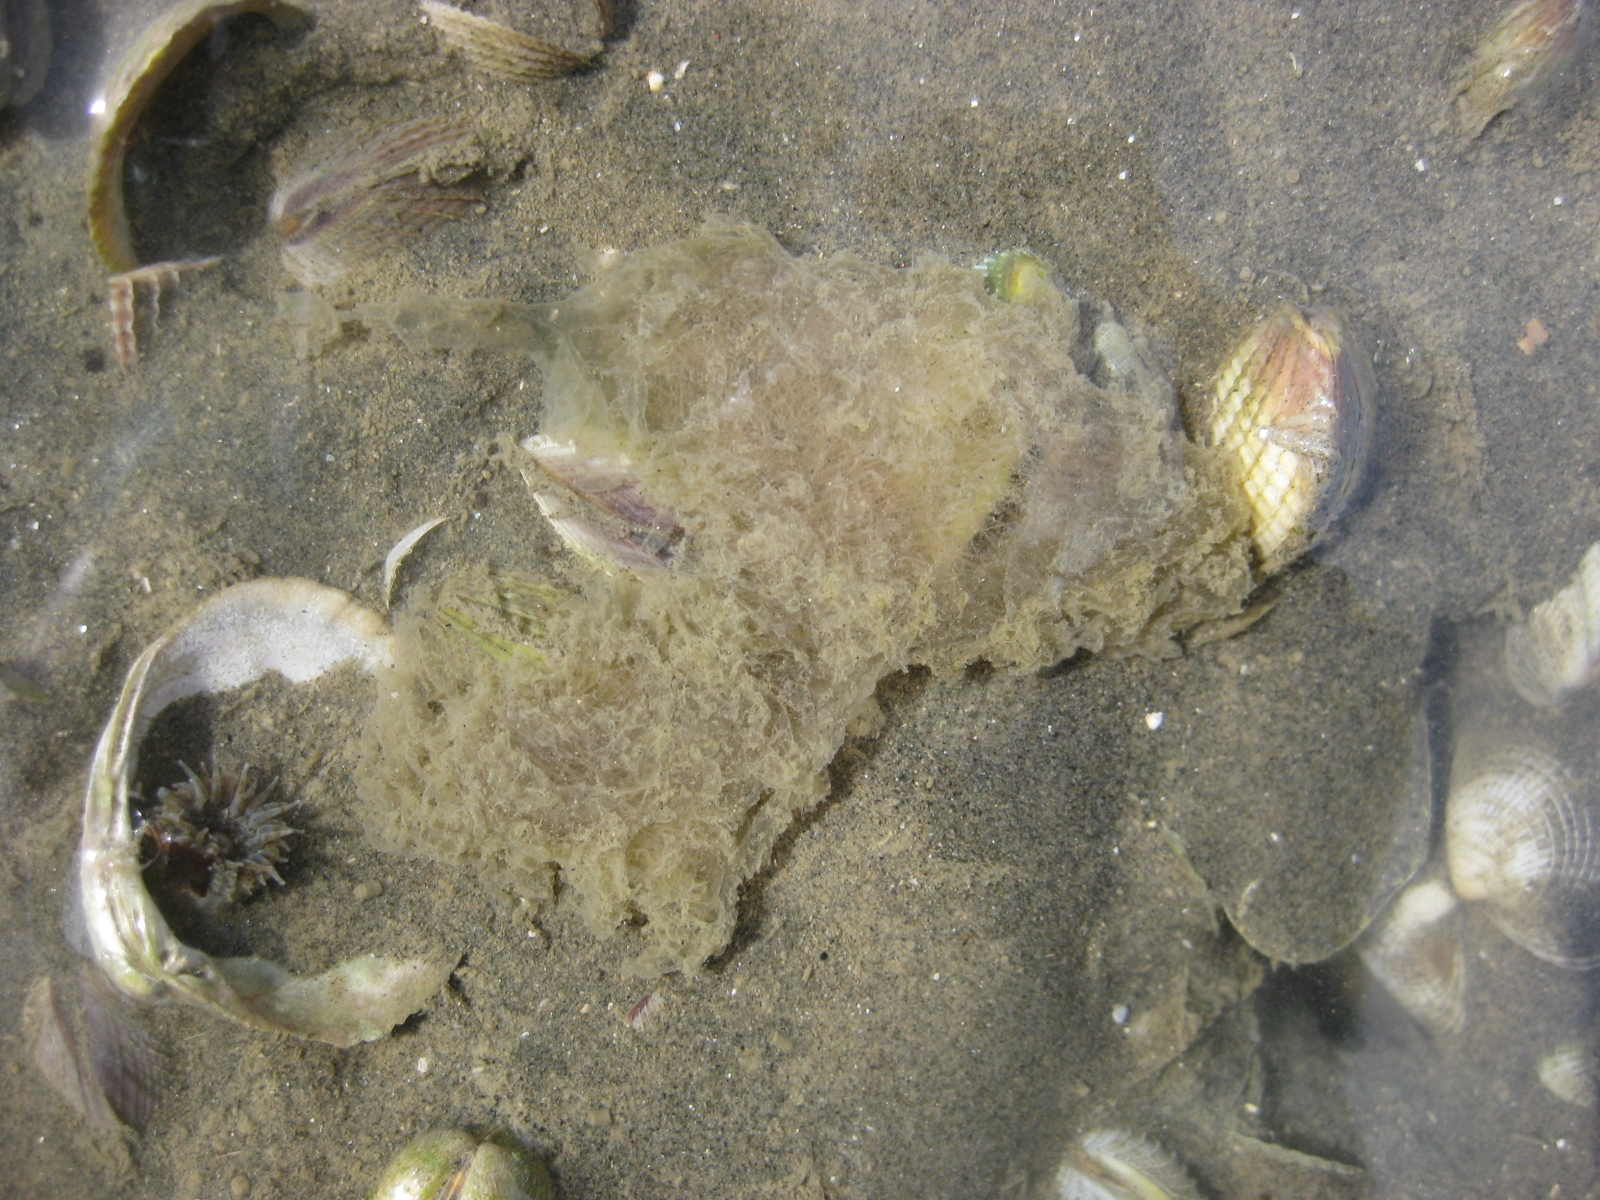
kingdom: Animalia
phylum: Mollusca
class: Gastropoda
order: Cephalaspidea
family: Haminoeidae
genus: Papawera
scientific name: Papawera zelandiae
